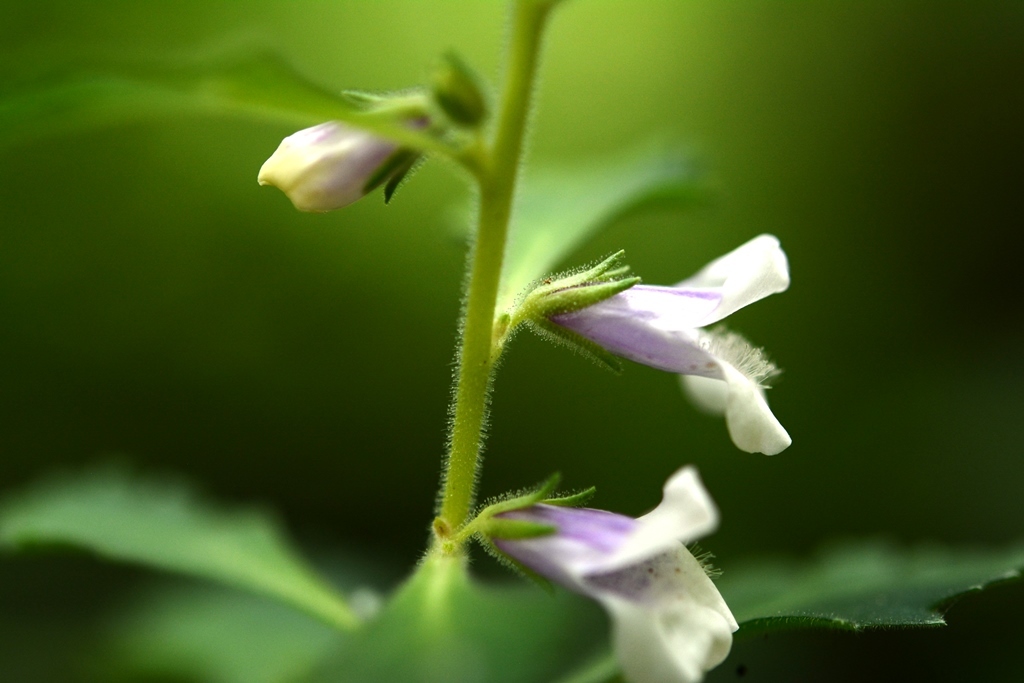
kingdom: Plantae
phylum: Tracheophyta
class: Magnoliopsida
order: Lamiales
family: Scrophulariaceae
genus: Capraria
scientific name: Capraria biflora
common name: Goatweed
